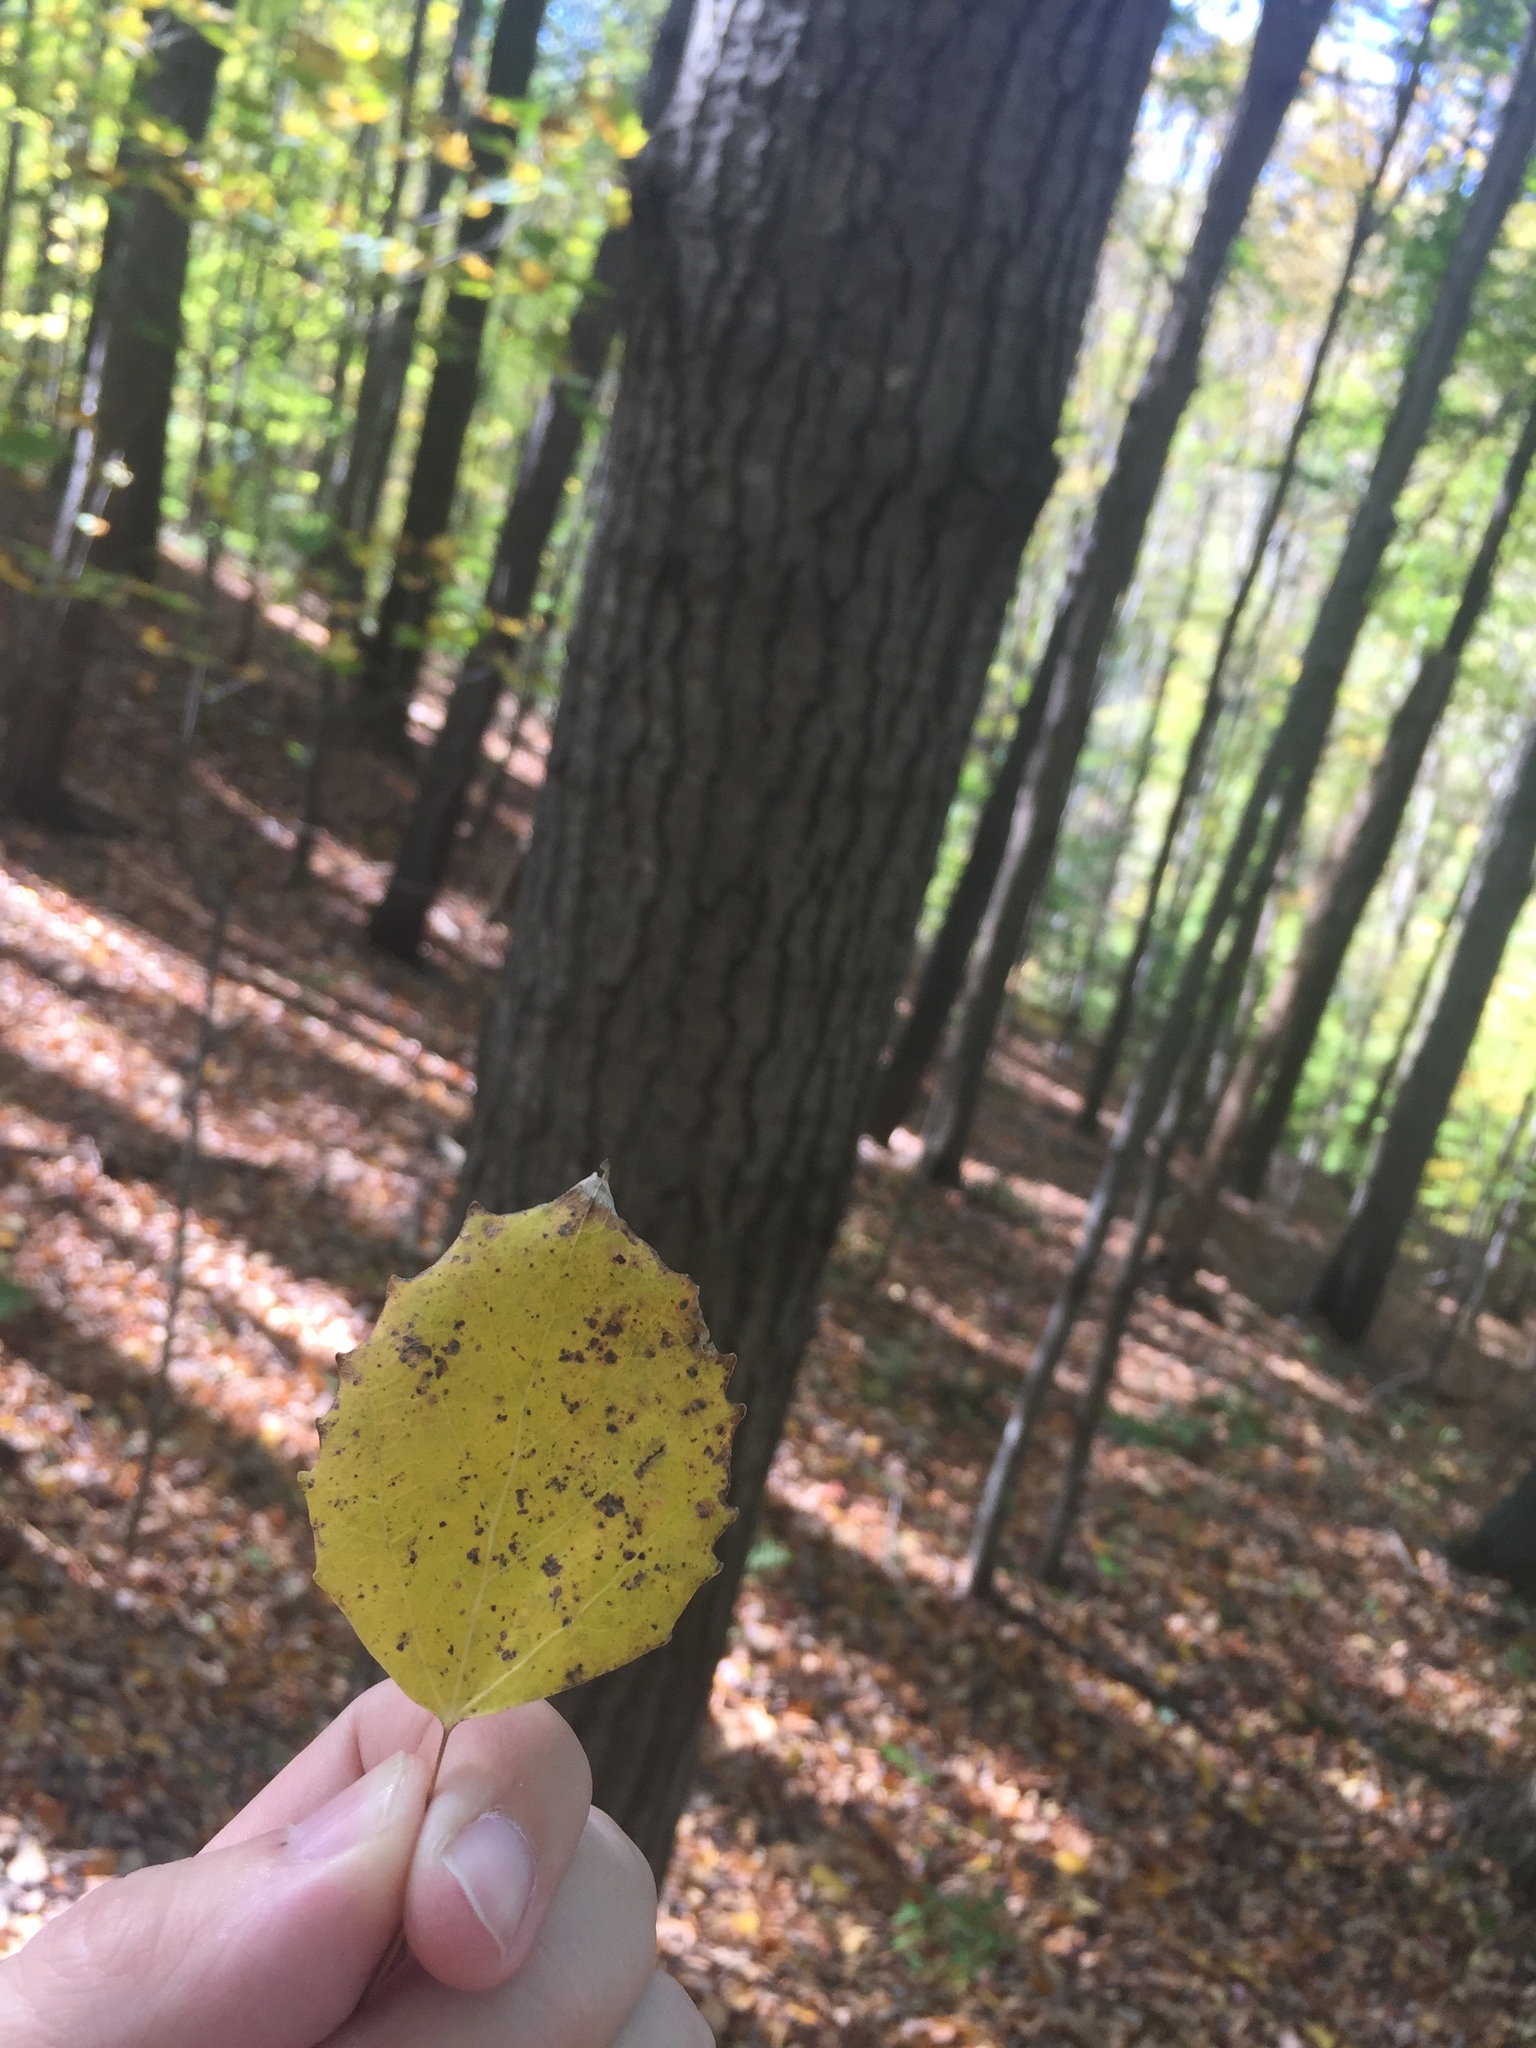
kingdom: Plantae
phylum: Tracheophyta
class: Magnoliopsida
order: Malpighiales
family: Salicaceae
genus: Populus
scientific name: Populus grandidentata
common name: Bigtooth aspen
